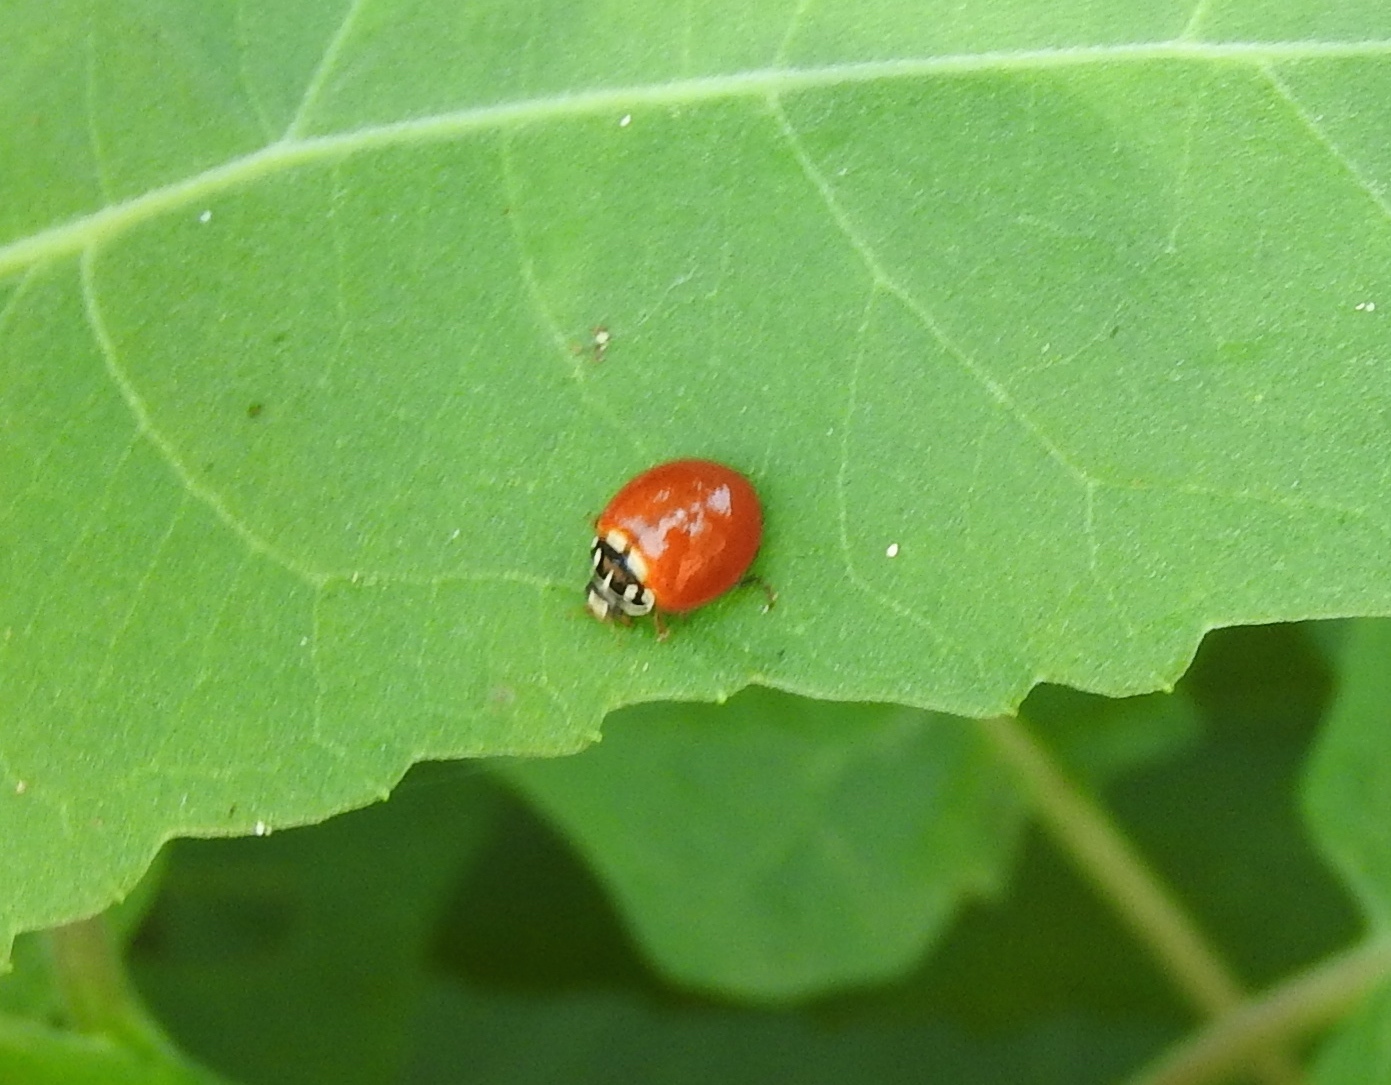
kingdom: Animalia
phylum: Arthropoda
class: Insecta
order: Coleoptera
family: Coccinellidae
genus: Cycloneda
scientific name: Cycloneda sanguinea
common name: Ladybird beetle
